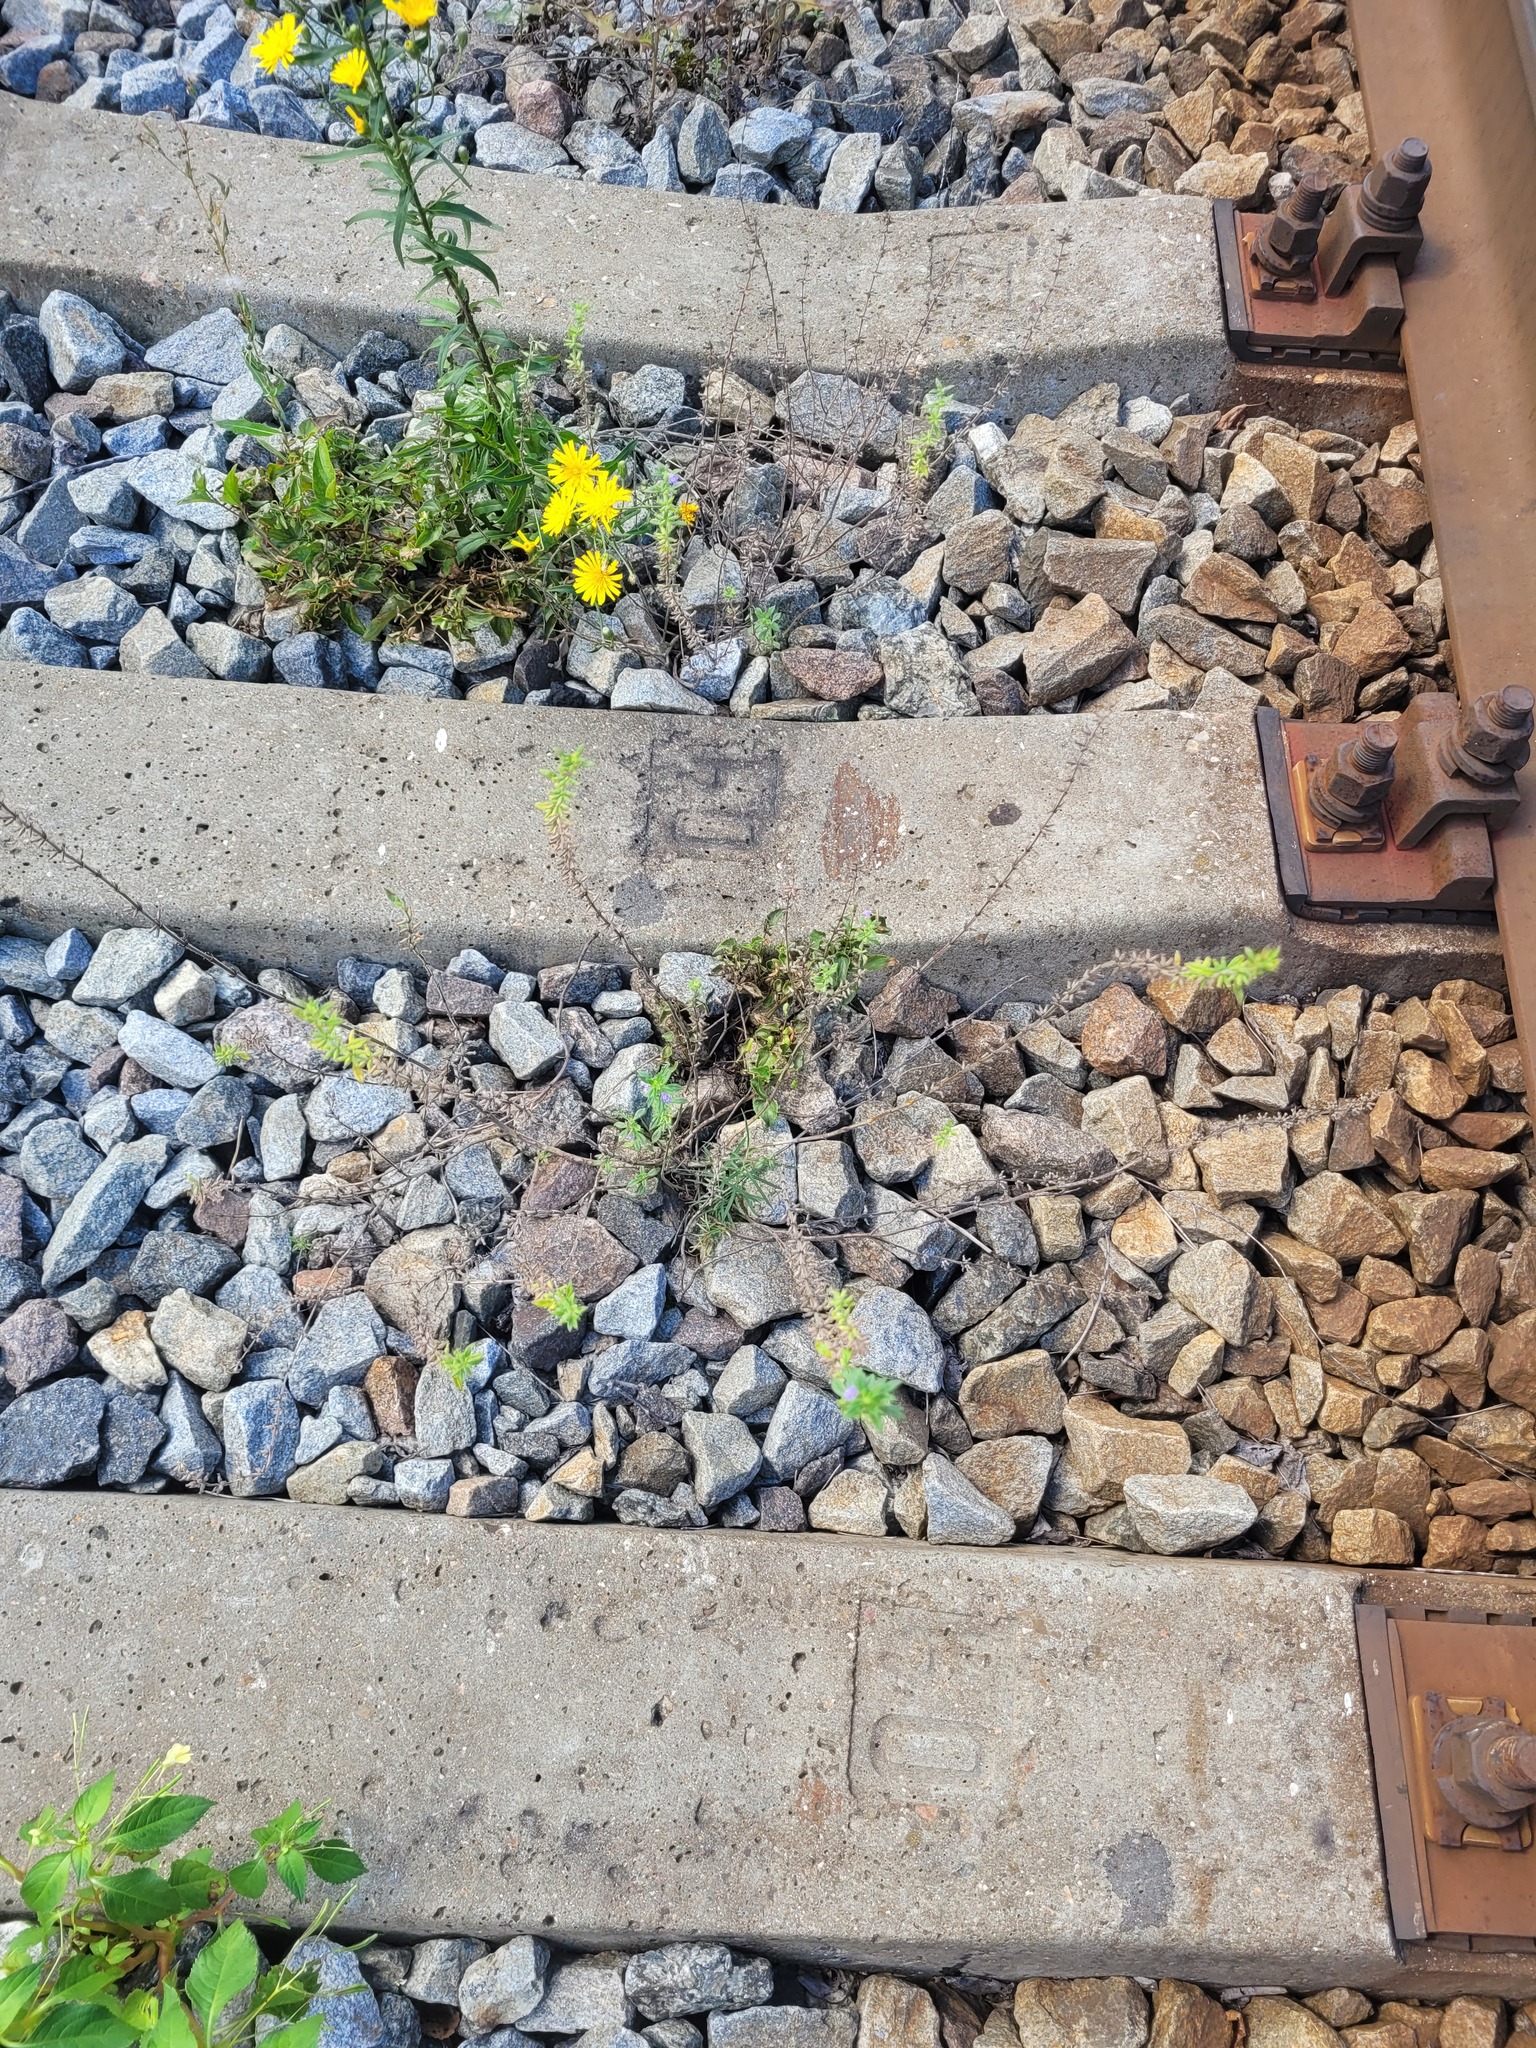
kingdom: Plantae
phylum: Tracheophyta
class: Magnoliopsida
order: Lamiales
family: Lamiaceae
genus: Clinopodium
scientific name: Clinopodium acinos
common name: Basil thyme
